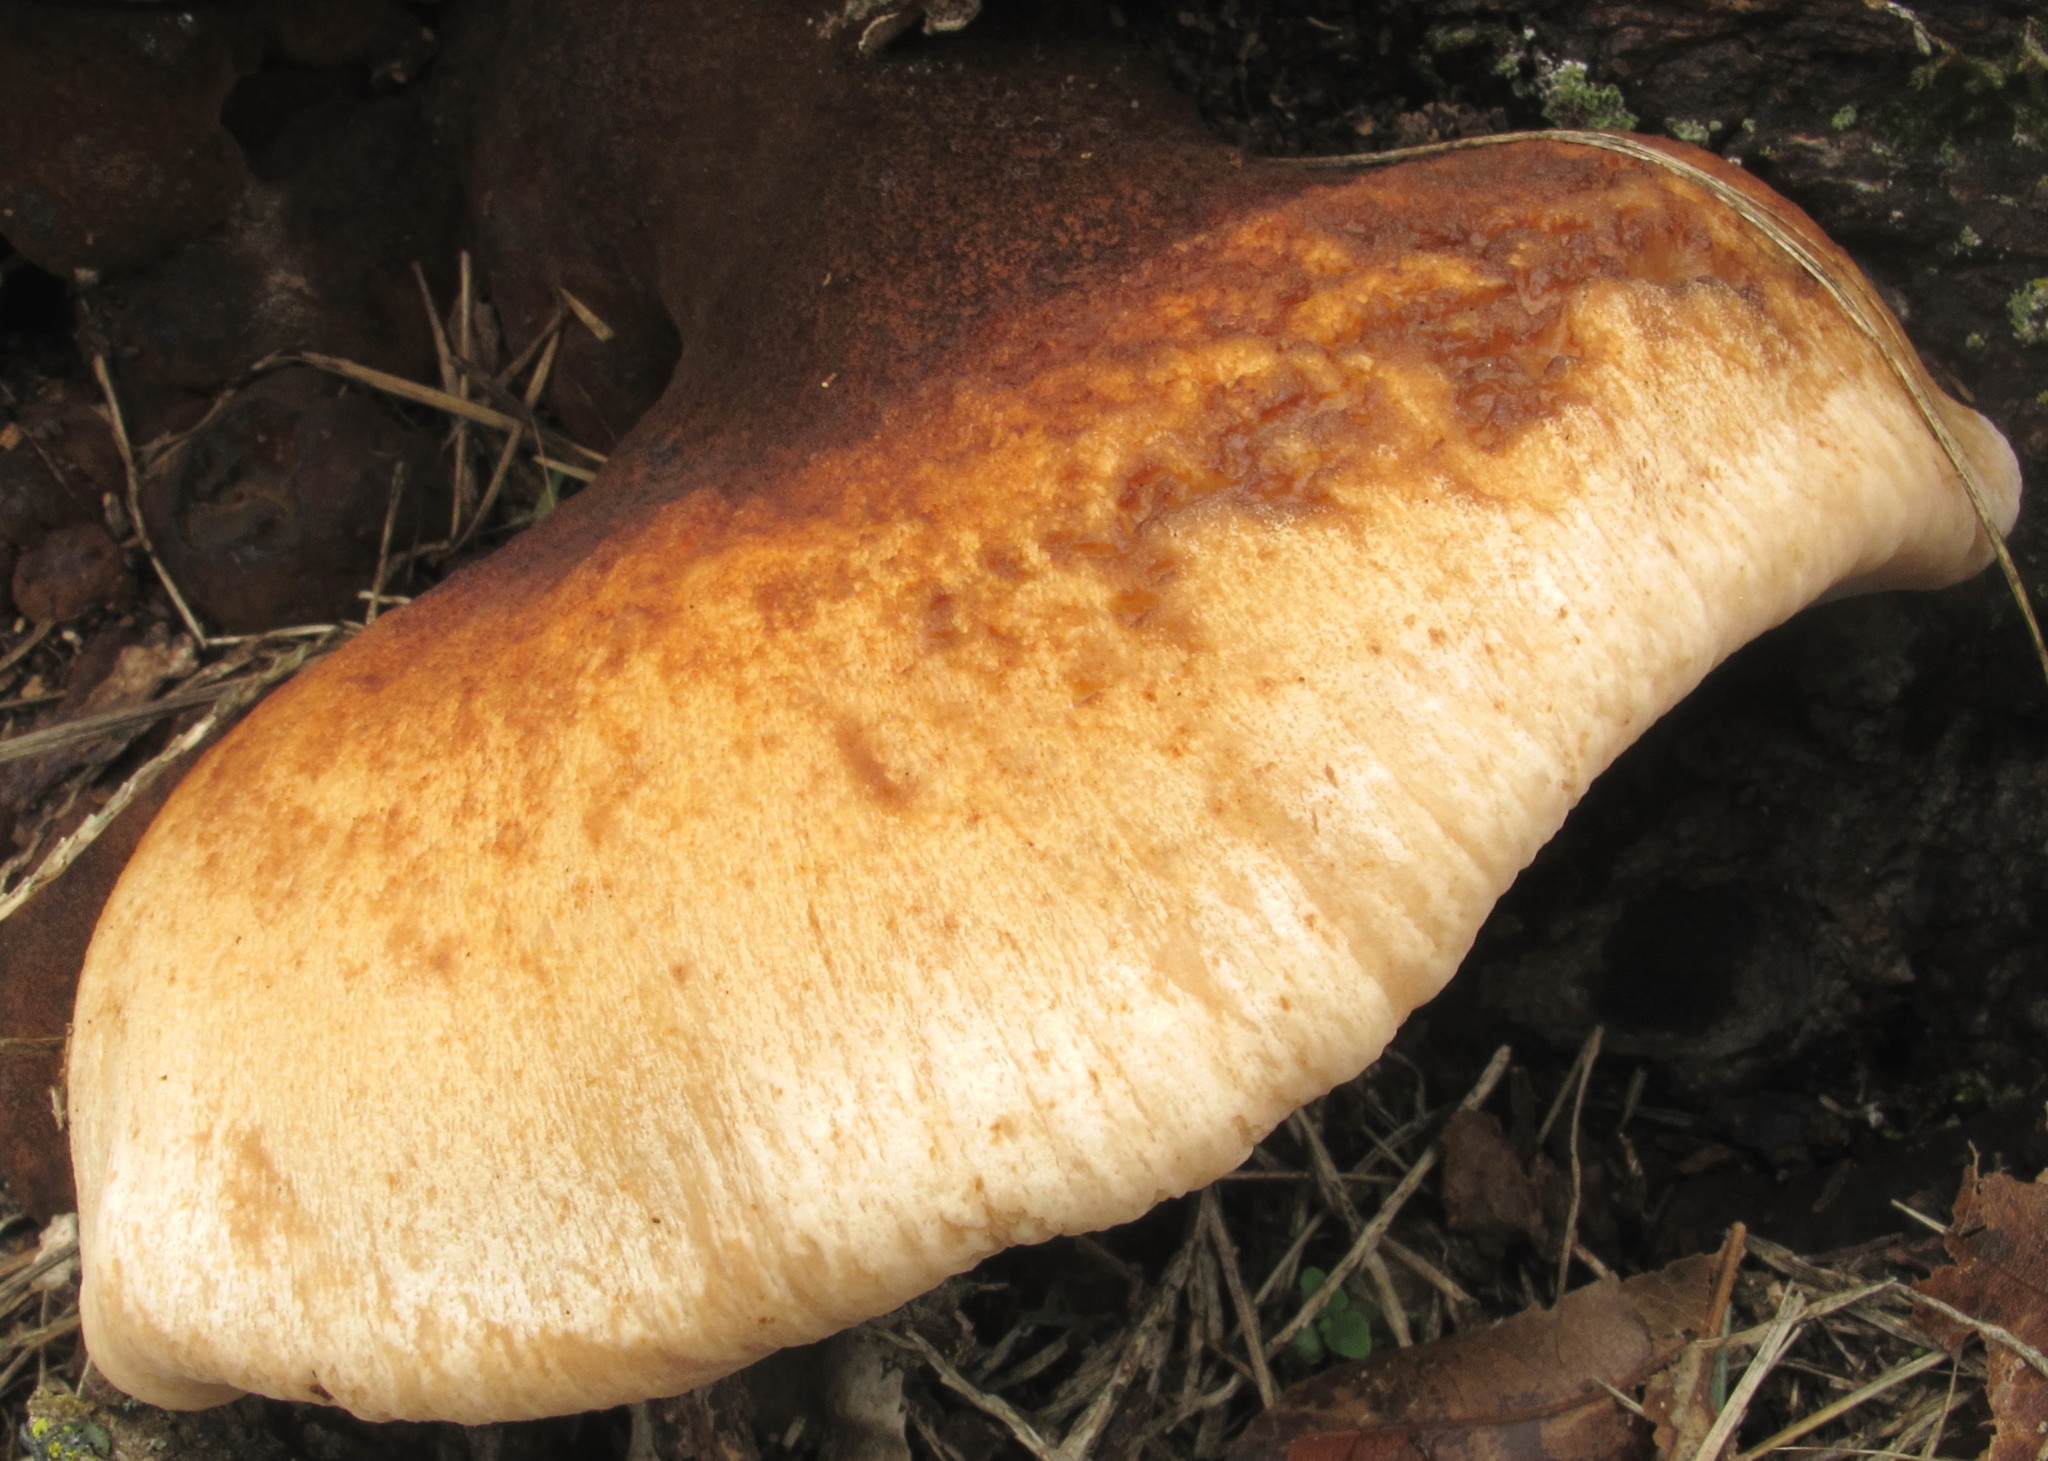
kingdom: Fungi
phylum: Basidiomycota
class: Agaricomycetes
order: Polyporales
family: Ischnodermataceae
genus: Ischnoderma
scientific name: Ischnoderma resinosum
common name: Resinous polypore
